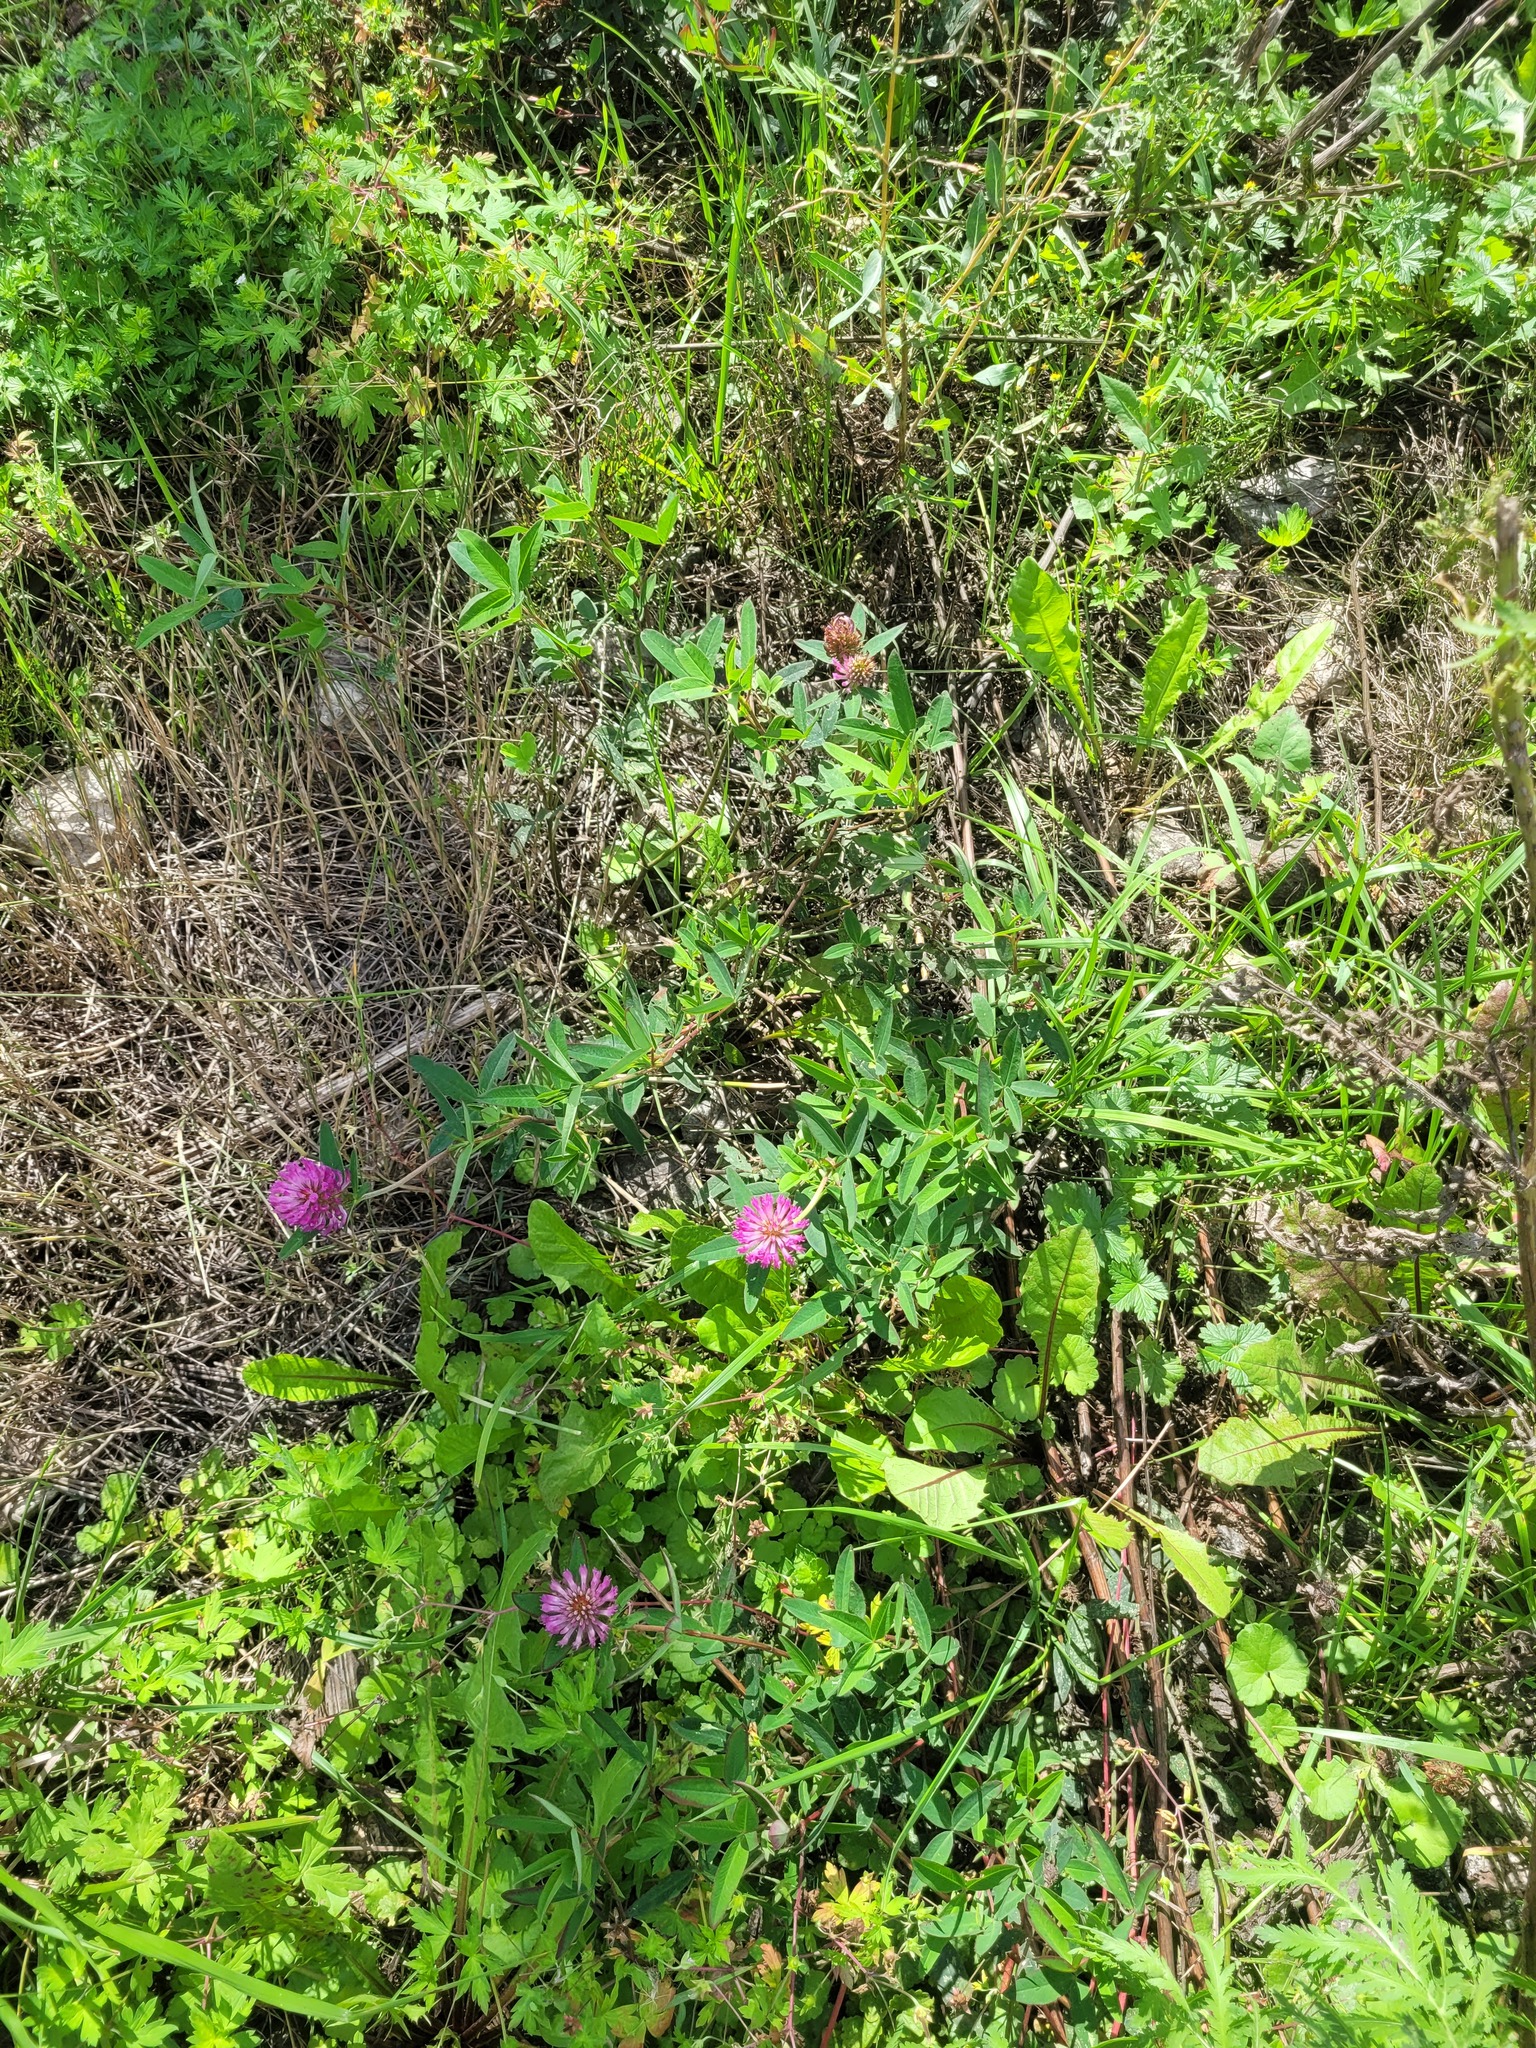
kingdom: Plantae
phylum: Tracheophyta
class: Magnoliopsida
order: Fabales
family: Fabaceae
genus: Trifolium
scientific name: Trifolium medium
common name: Zigzag clover
